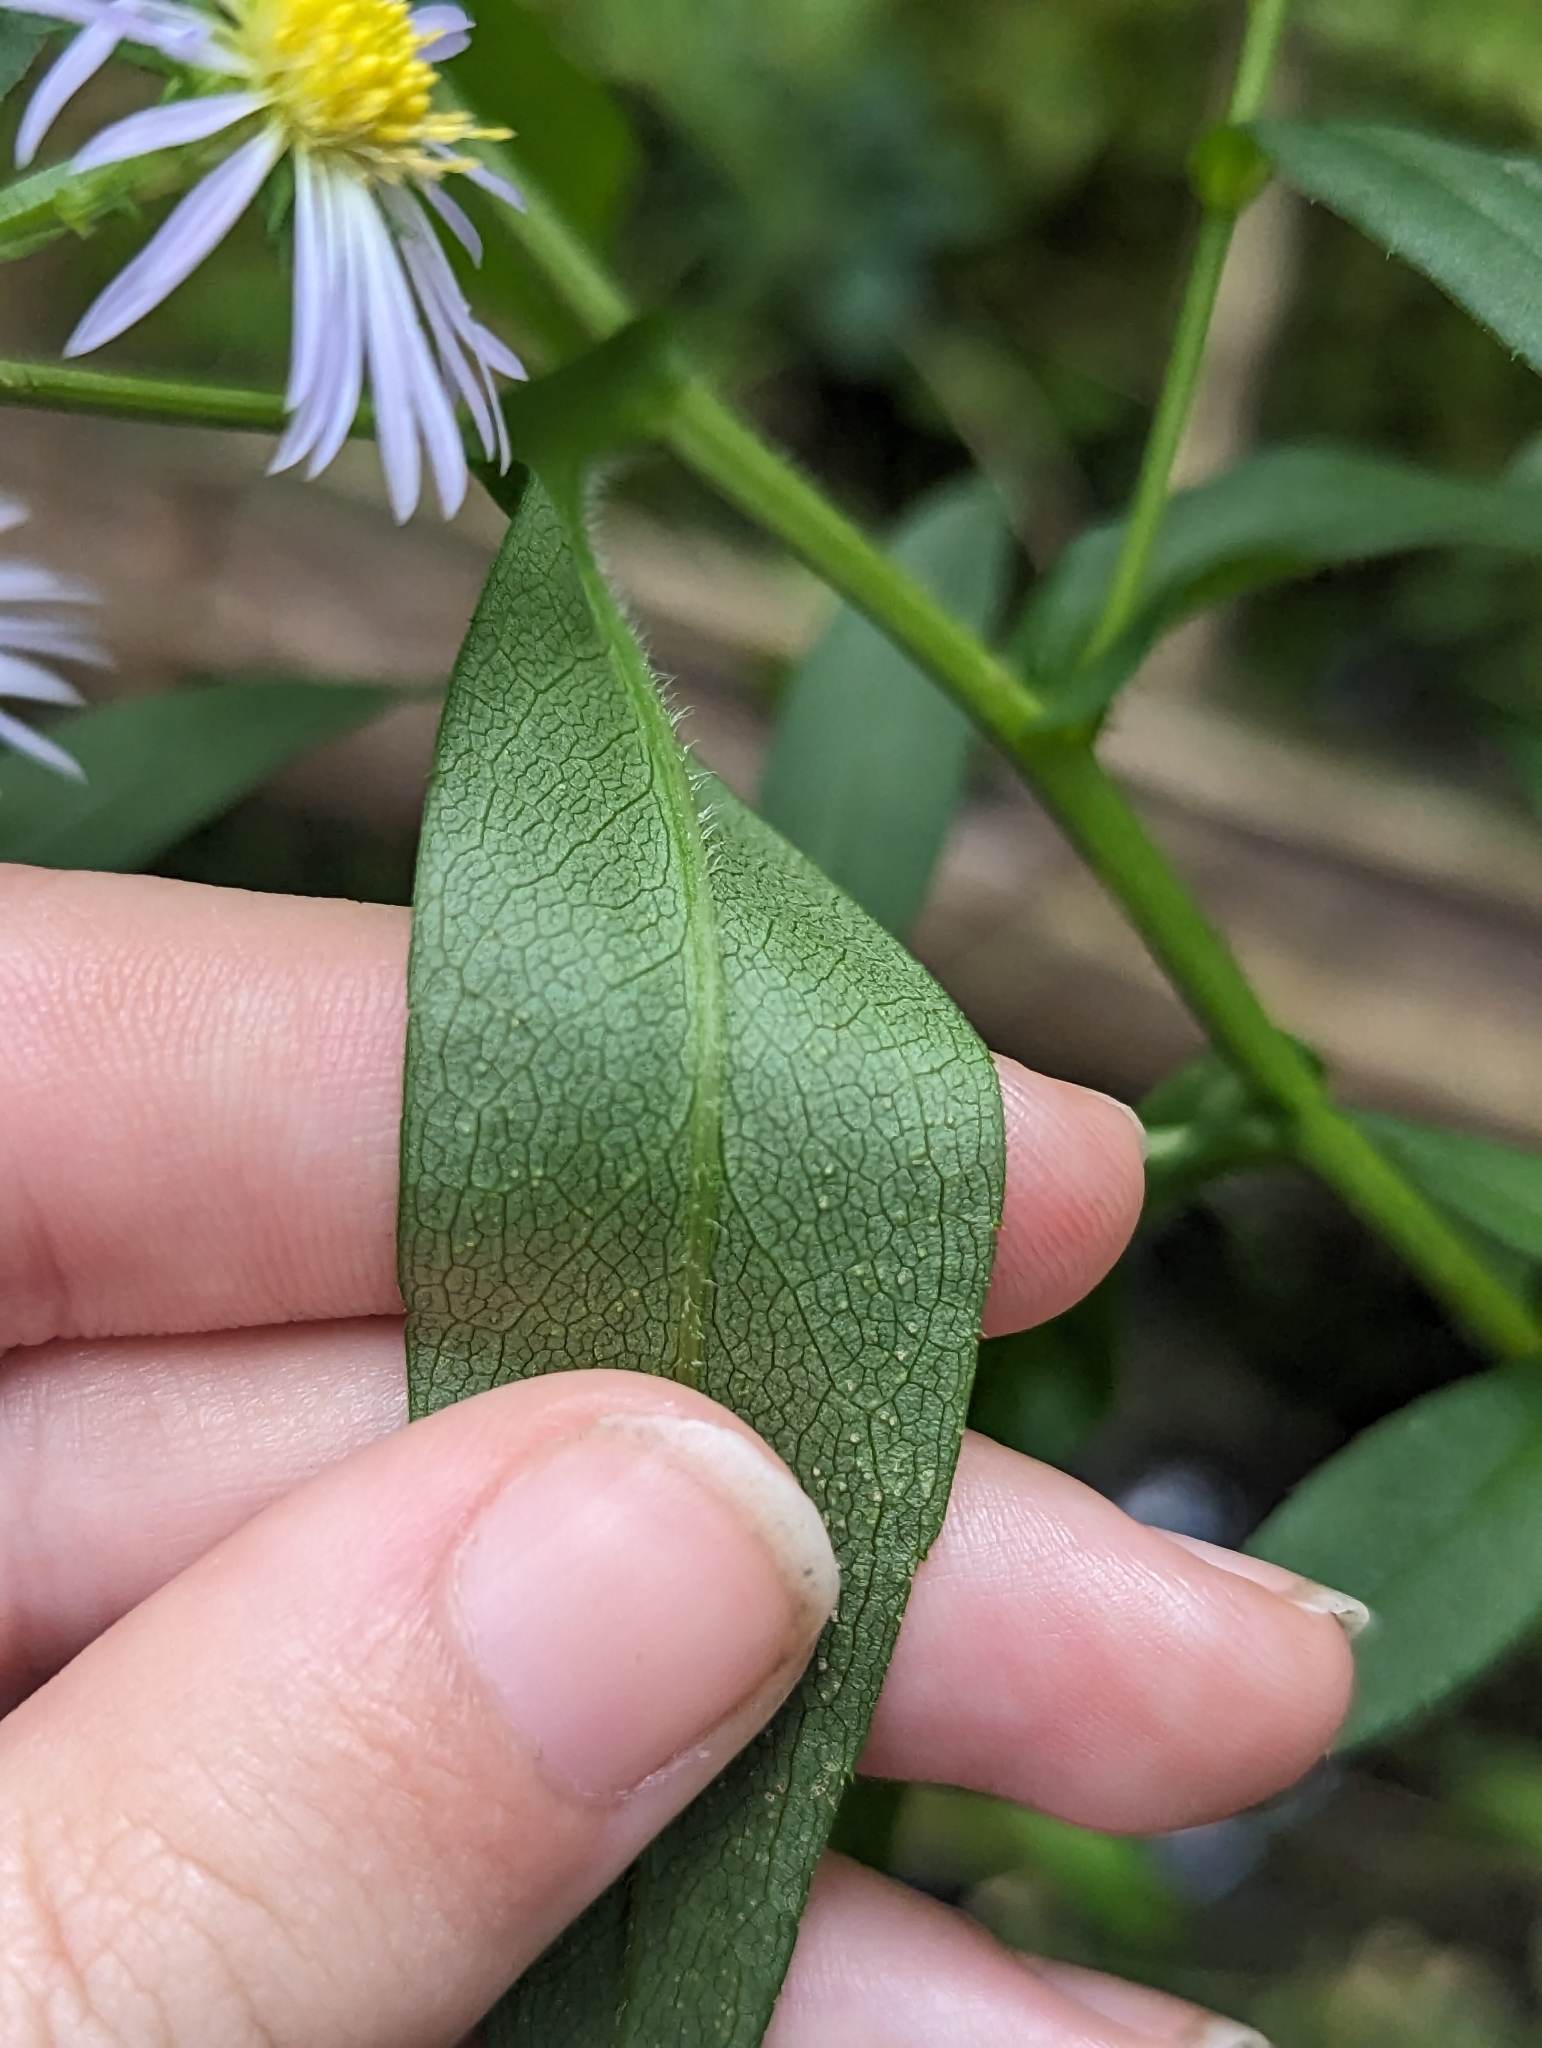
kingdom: Plantae
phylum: Tracheophyta
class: Magnoliopsida
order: Asterales
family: Asteraceae
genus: Symphyotrichum
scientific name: Symphyotrichum firmum
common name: Shining aster
